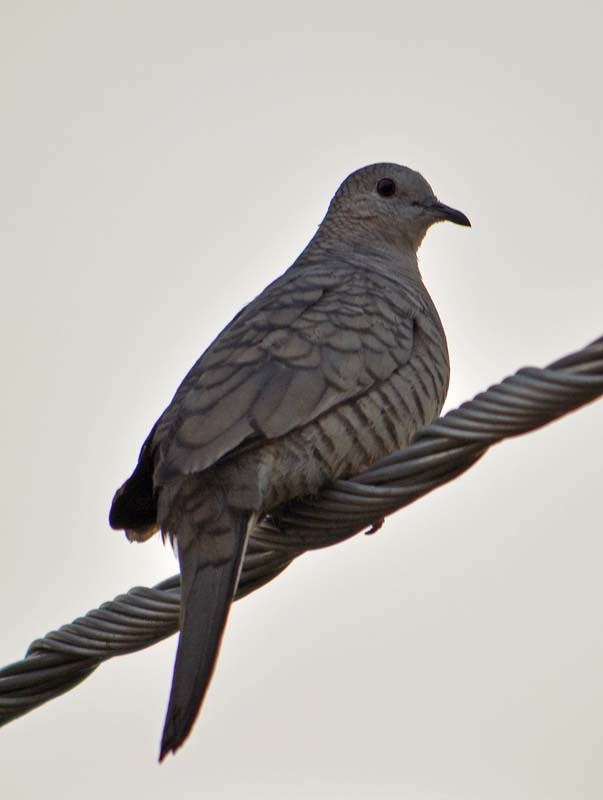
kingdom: Animalia
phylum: Chordata
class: Aves
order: Columbiformes
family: Columbidae
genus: Columbina
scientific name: Columbina inca
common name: Inca dove
